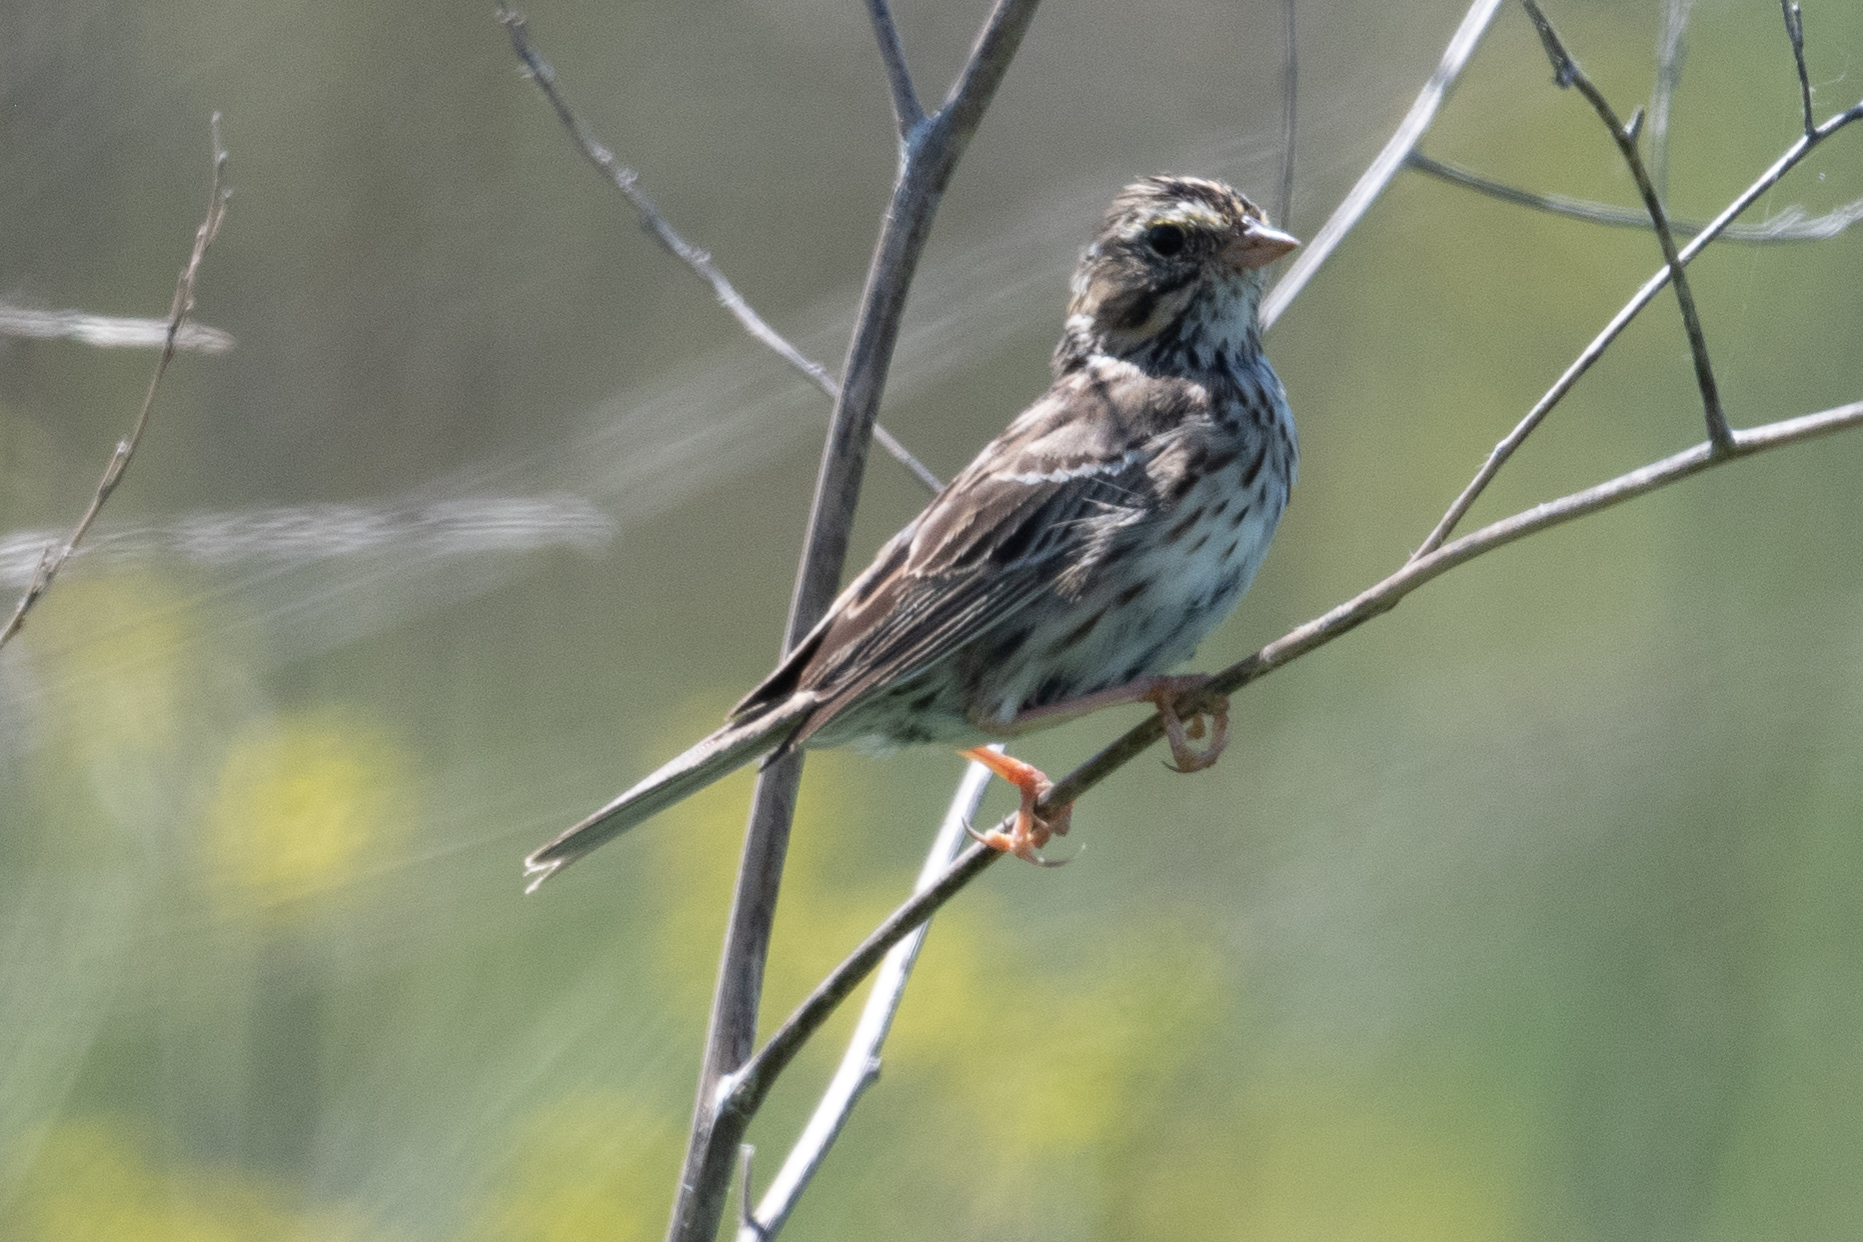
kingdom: Animalia
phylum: Chordata
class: Aves
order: Passeriformes
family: Passerellidae
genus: Passerculus
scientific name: Passerculus sandwichensis
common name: Savannah sparrow
